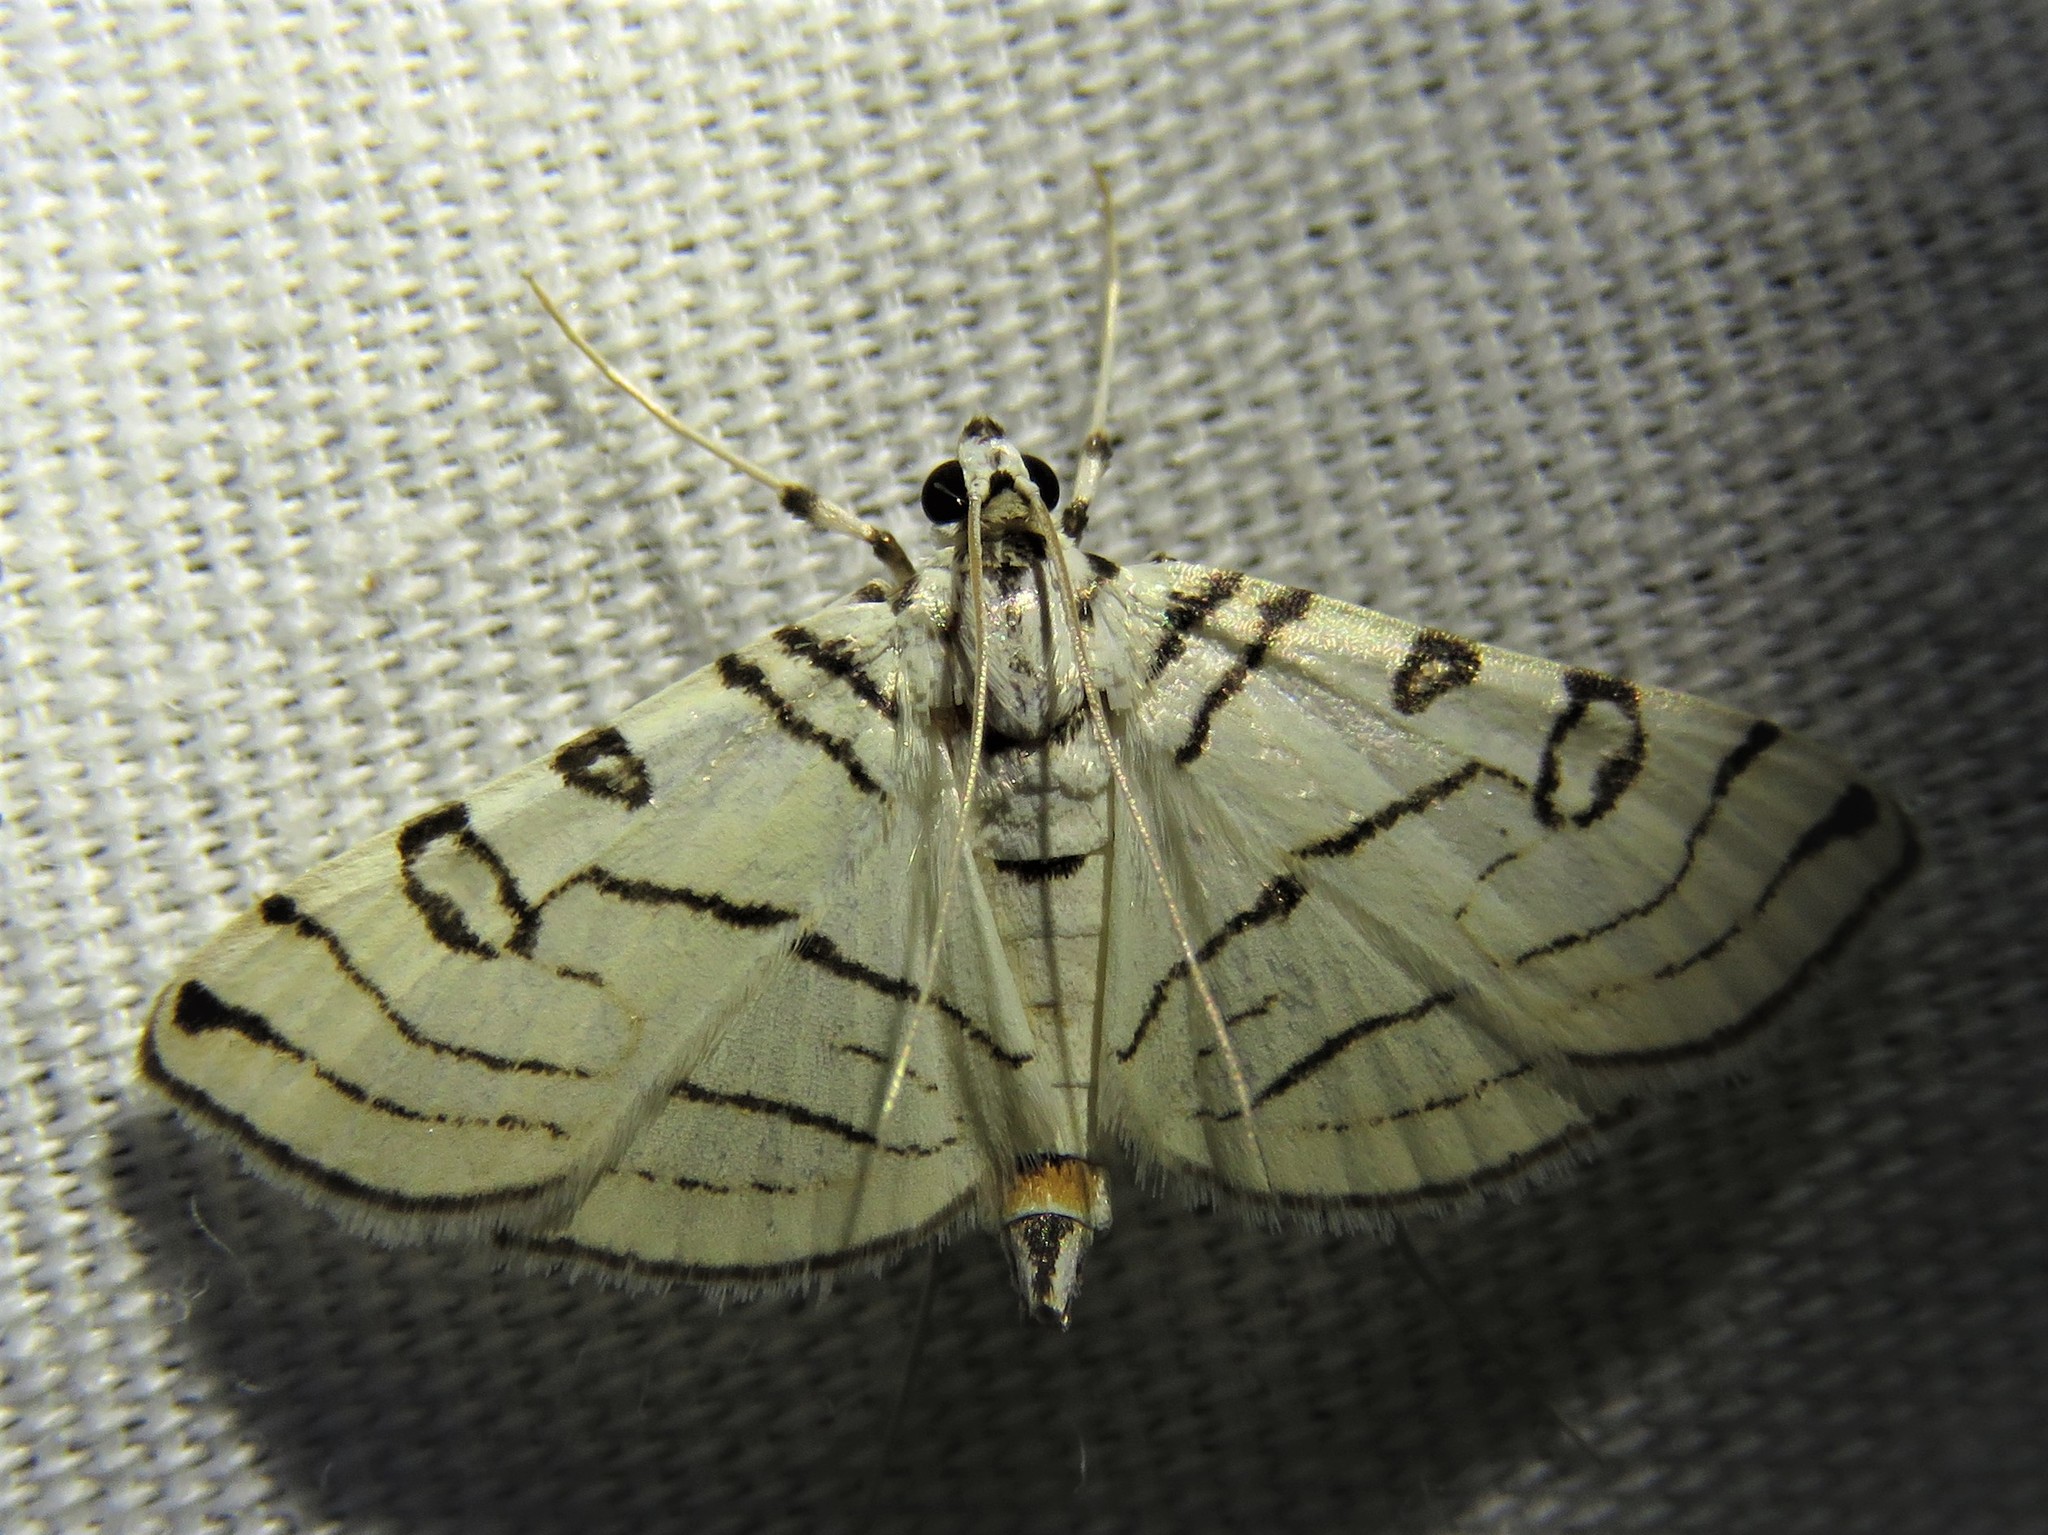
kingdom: Animalia
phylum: Arthropoda
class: Insecta
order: Lepidoptera
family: Crambidae
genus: Conchylodes
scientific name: Conchylodes concinnalis
